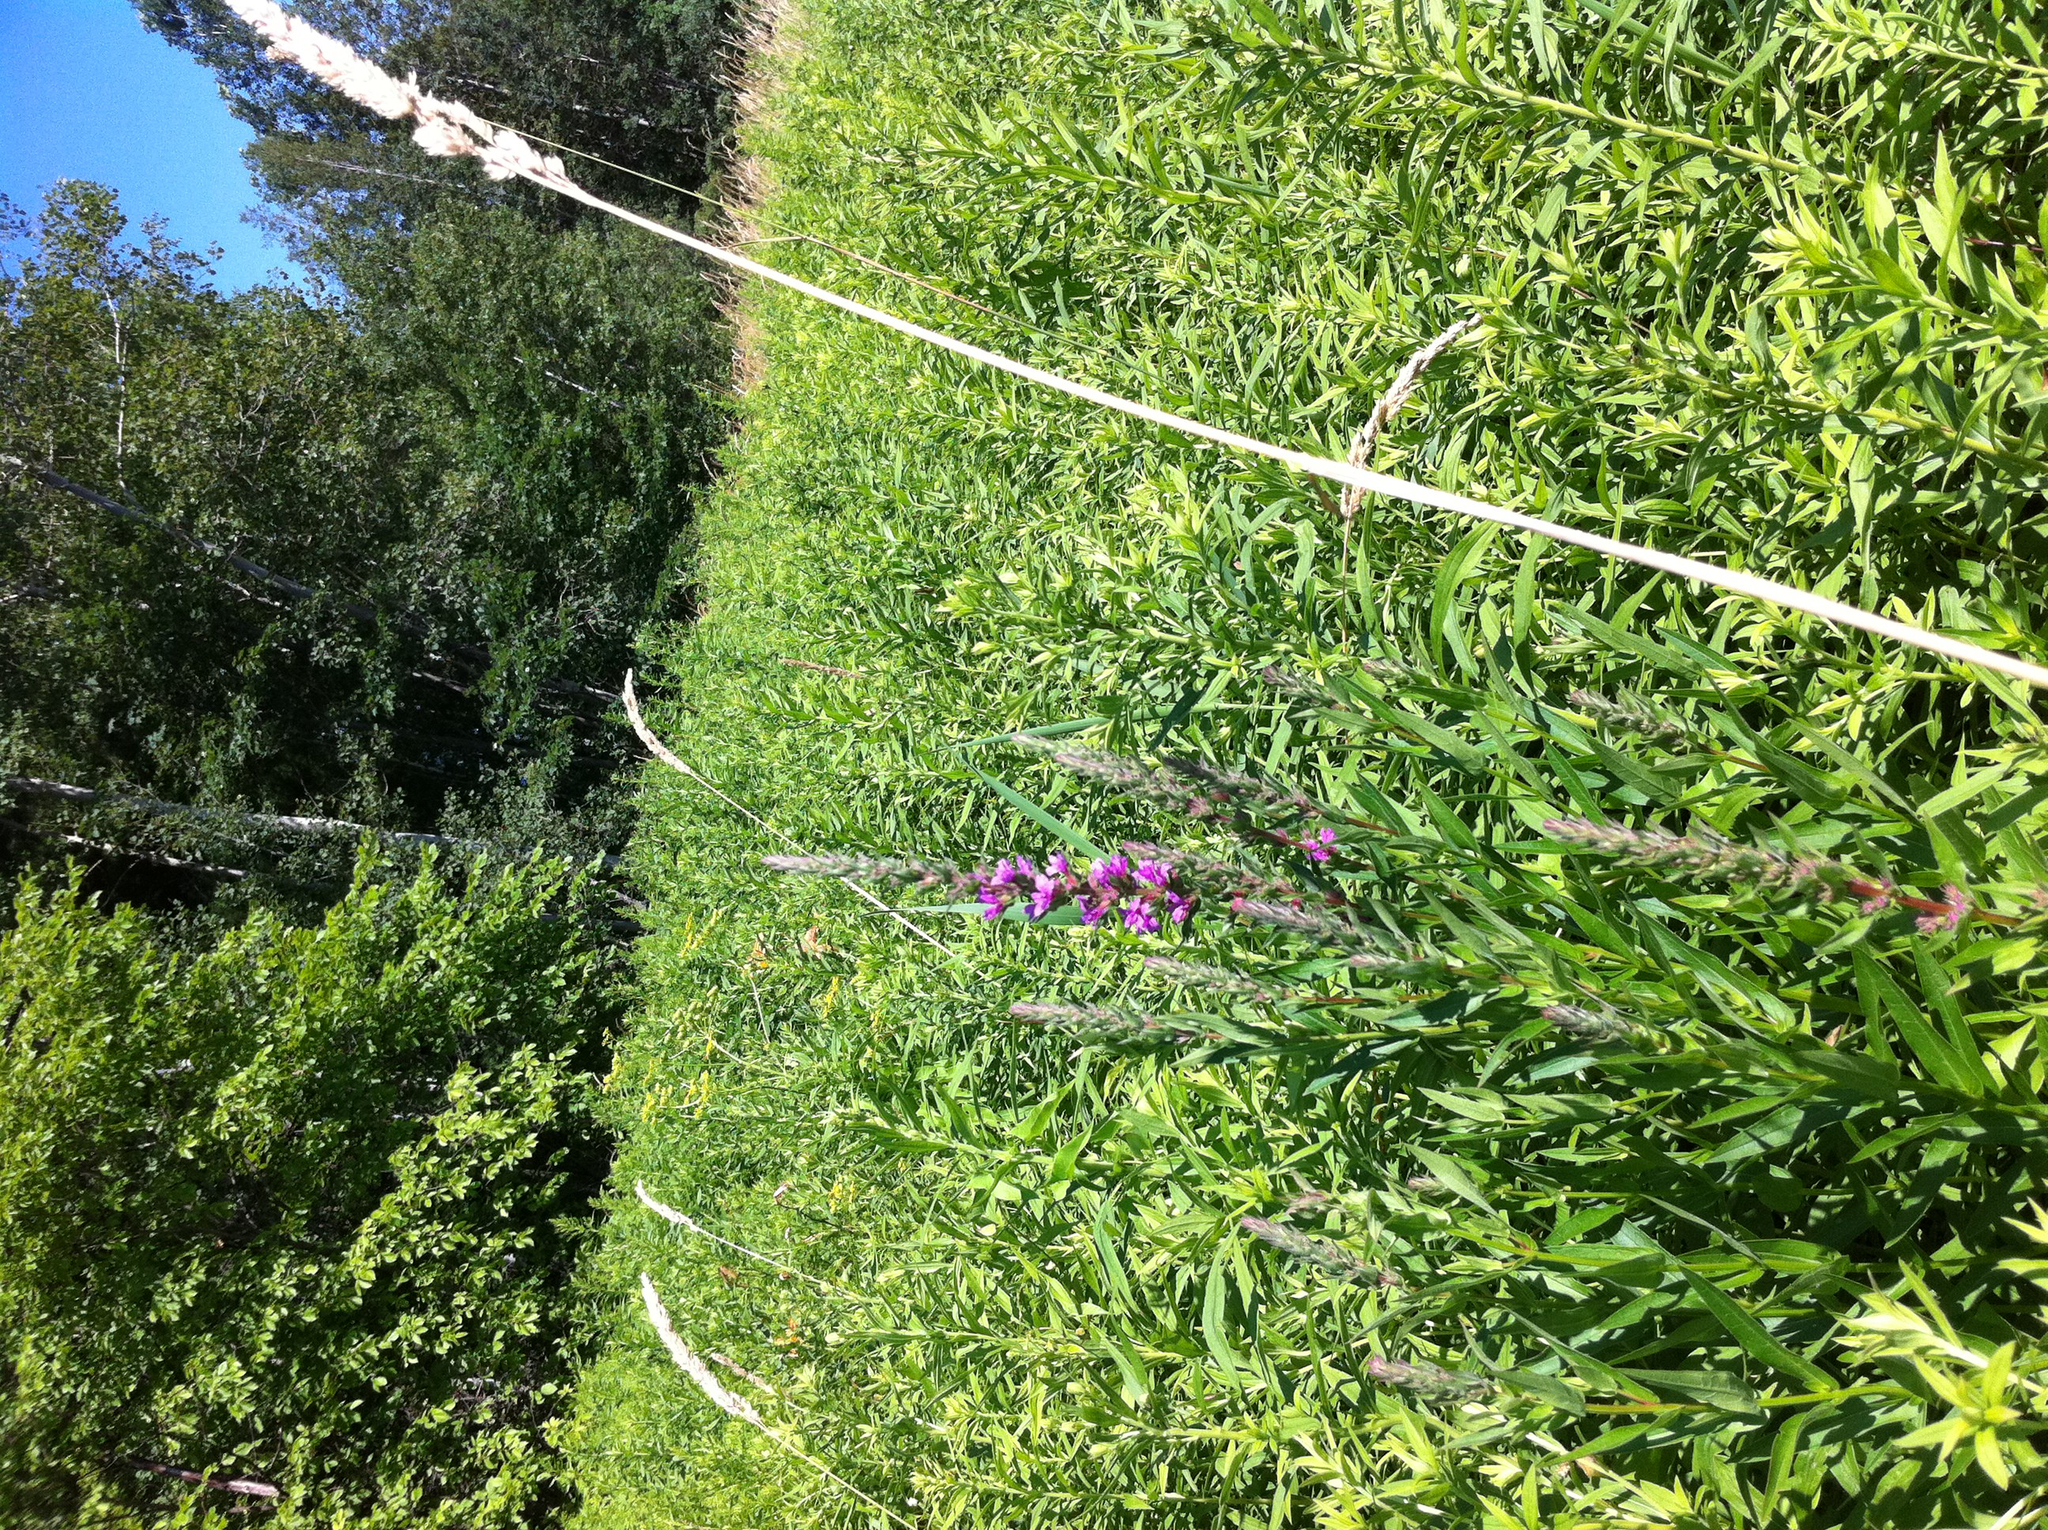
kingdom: Plantae
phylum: Tracheophyta
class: Liliopsida
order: Poales
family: Poaceae
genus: Phalaris
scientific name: Phalaris arundinacea
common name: Reed canary-grass
